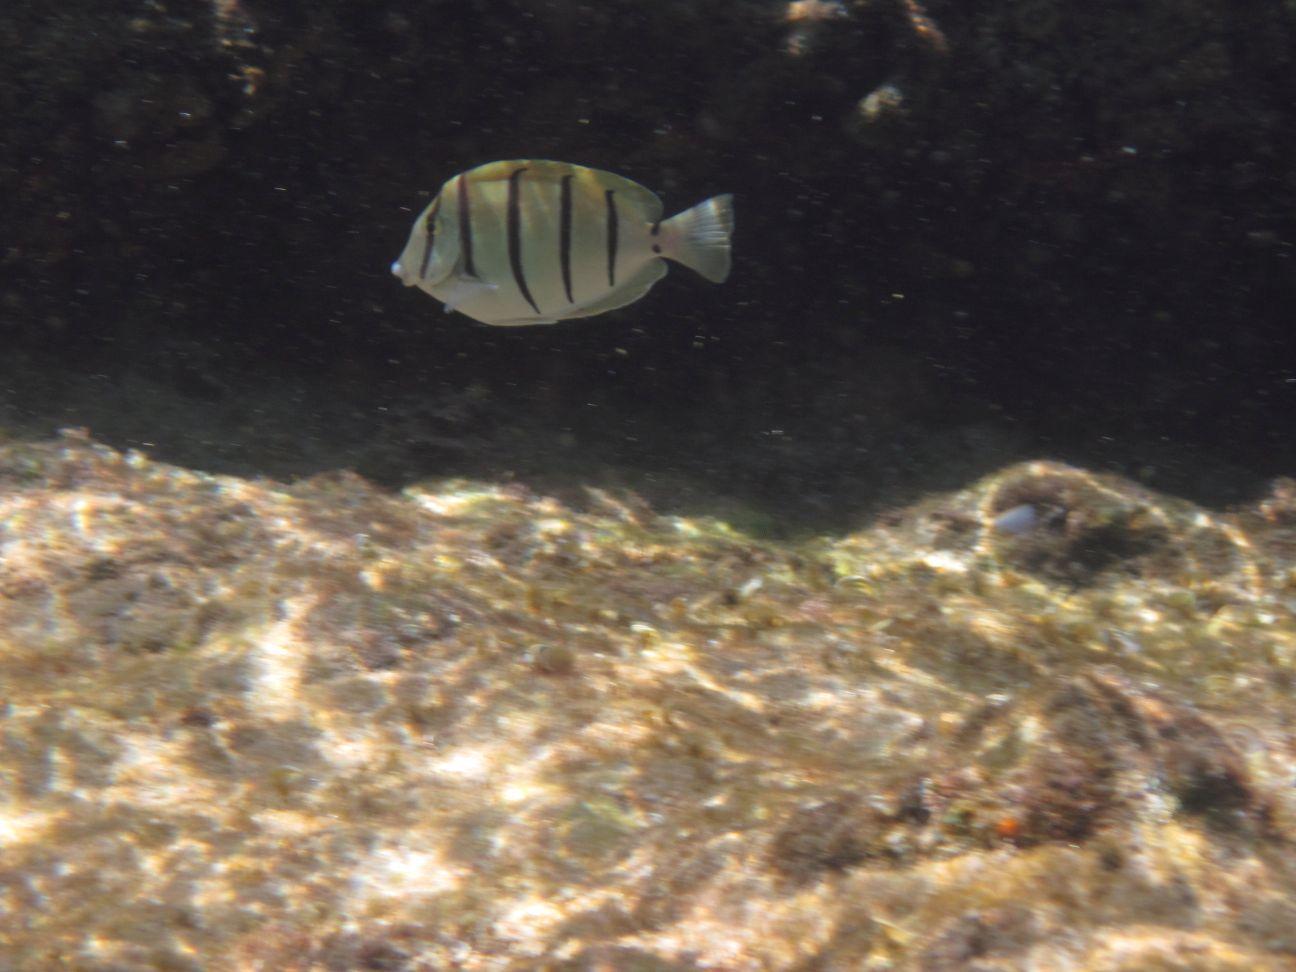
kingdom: Animalia
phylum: Chordata
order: Perciformes
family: Acanthuridae
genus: Acanthurus
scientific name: Acanthurus triostegus
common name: Convict surgeonfish
